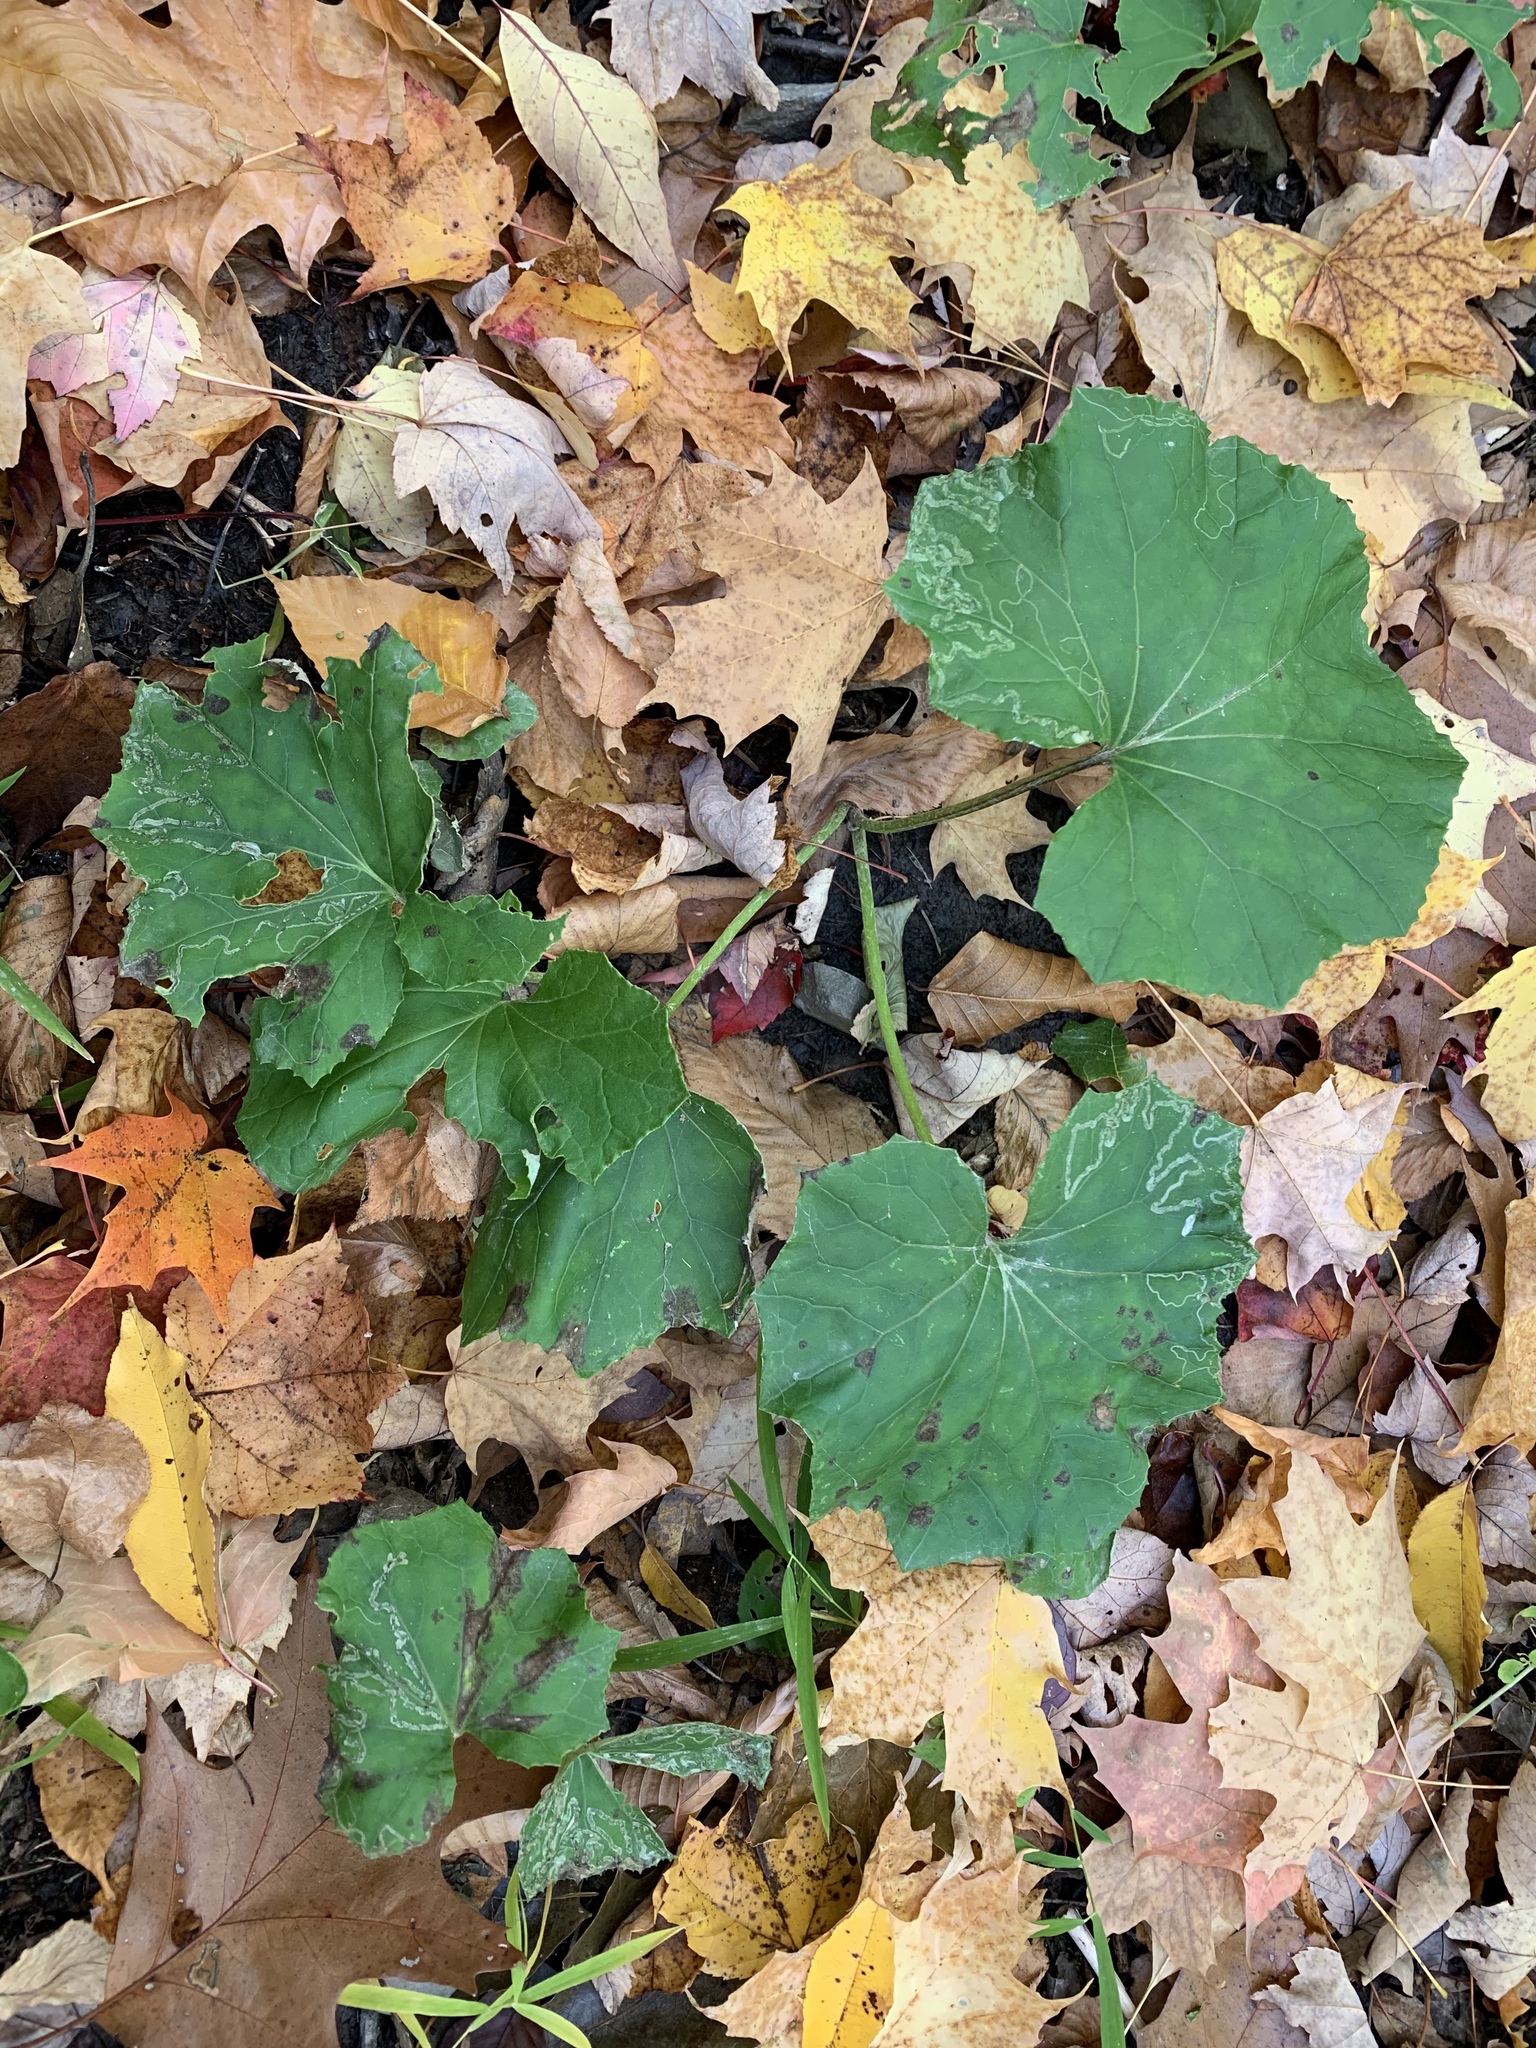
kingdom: Plantae
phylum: Tracheophyta
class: Magnoliopsida
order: Asterales
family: Asteraceae
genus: Tussilago
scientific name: Tussilago farfara
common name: Coltsfoot
